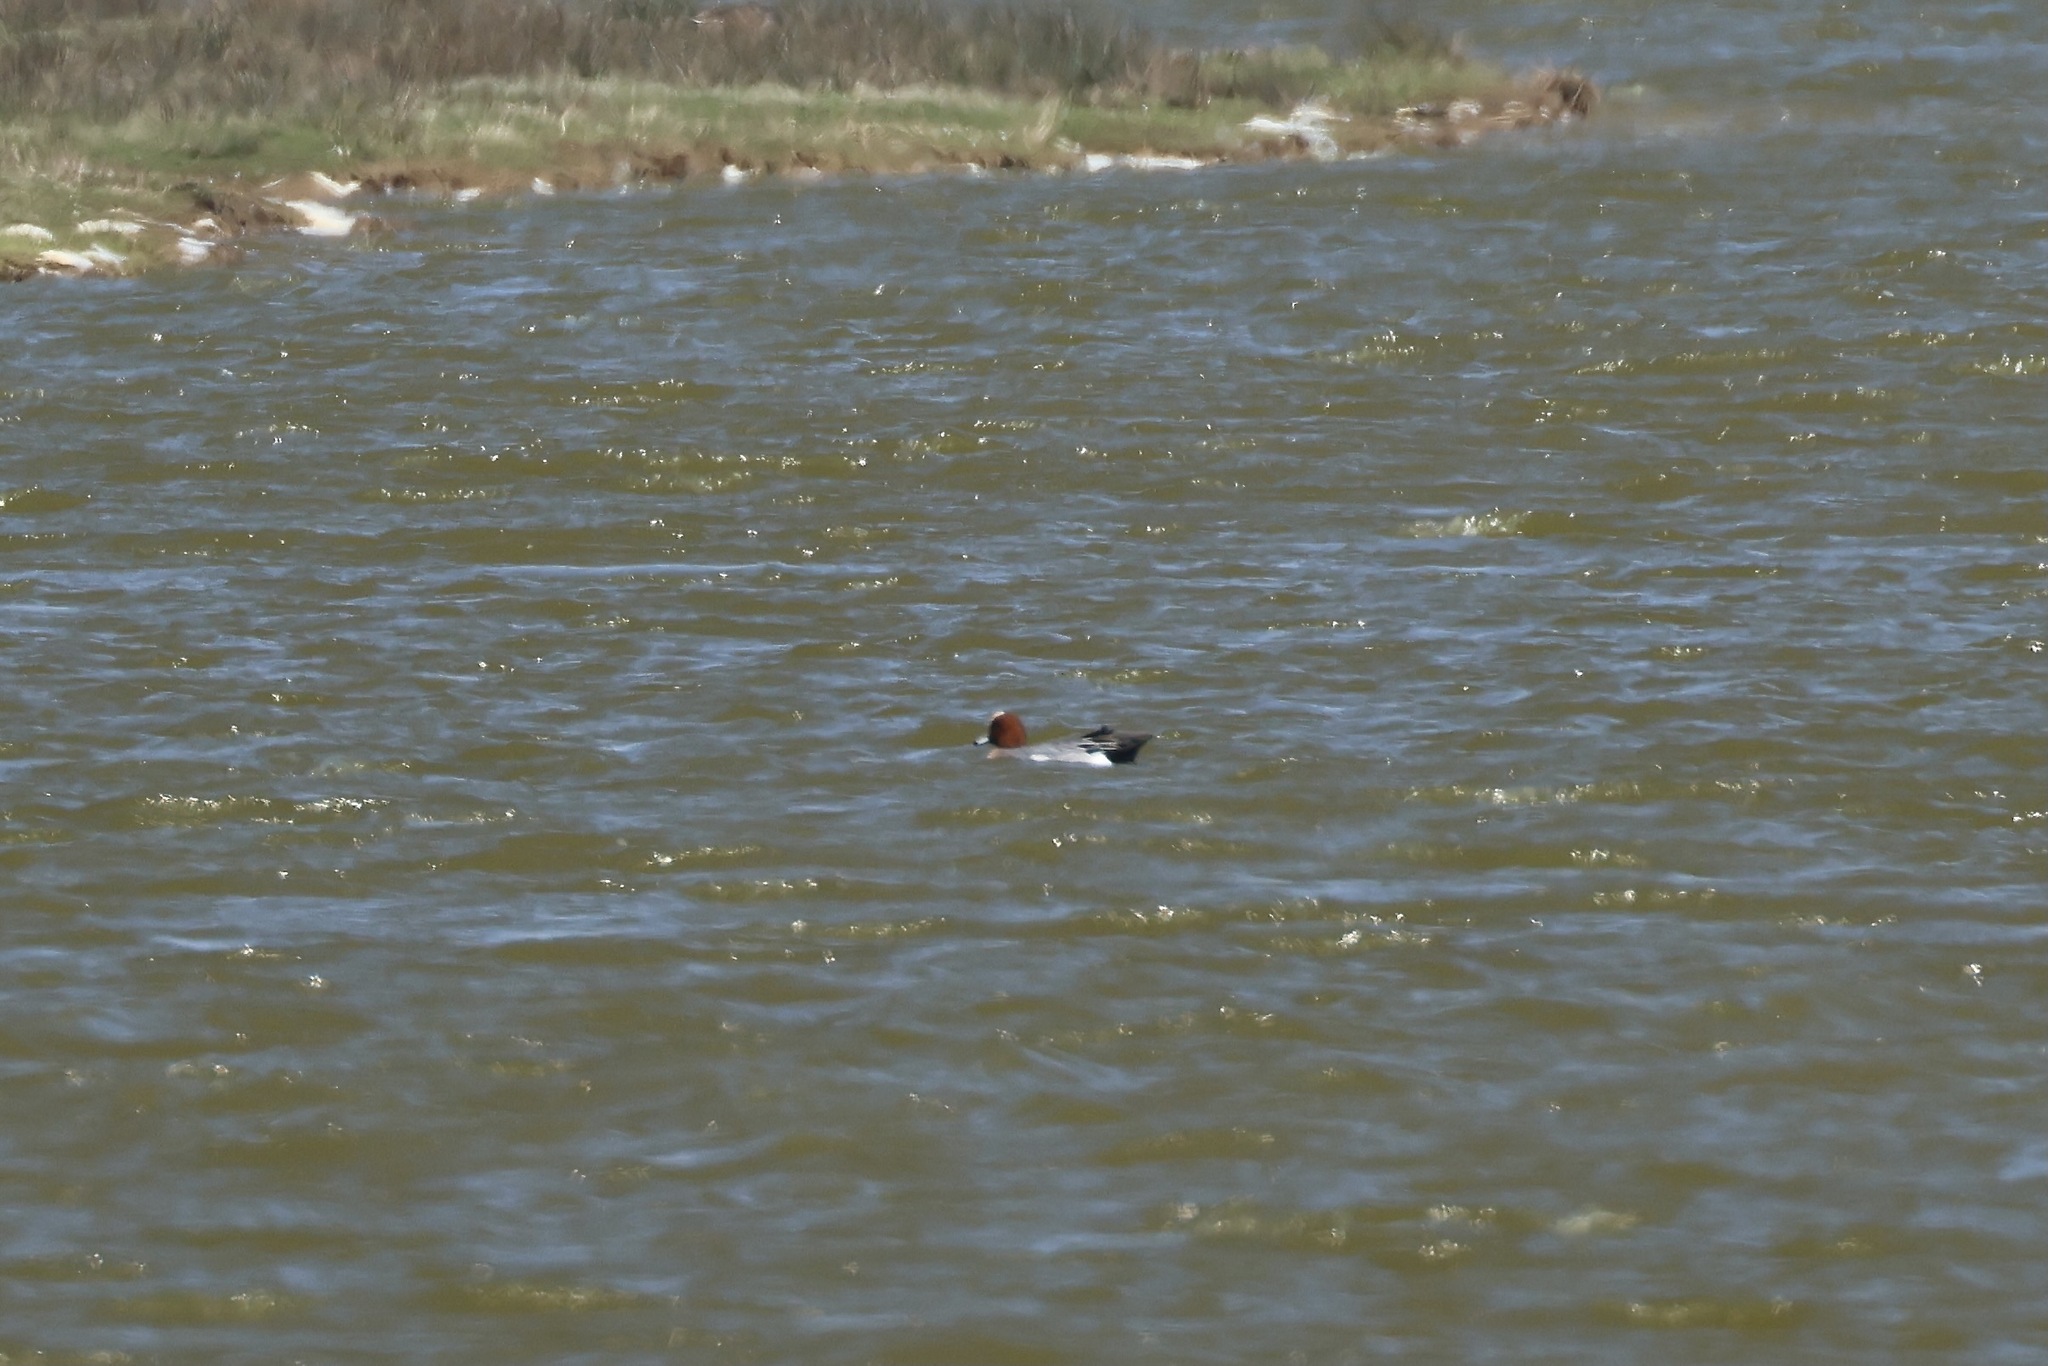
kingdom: Animalia
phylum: Chordata
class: Aves
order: Anseriformes
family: Anatidae
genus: Mareca
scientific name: Mareca penelope
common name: Eurasian wigeon
